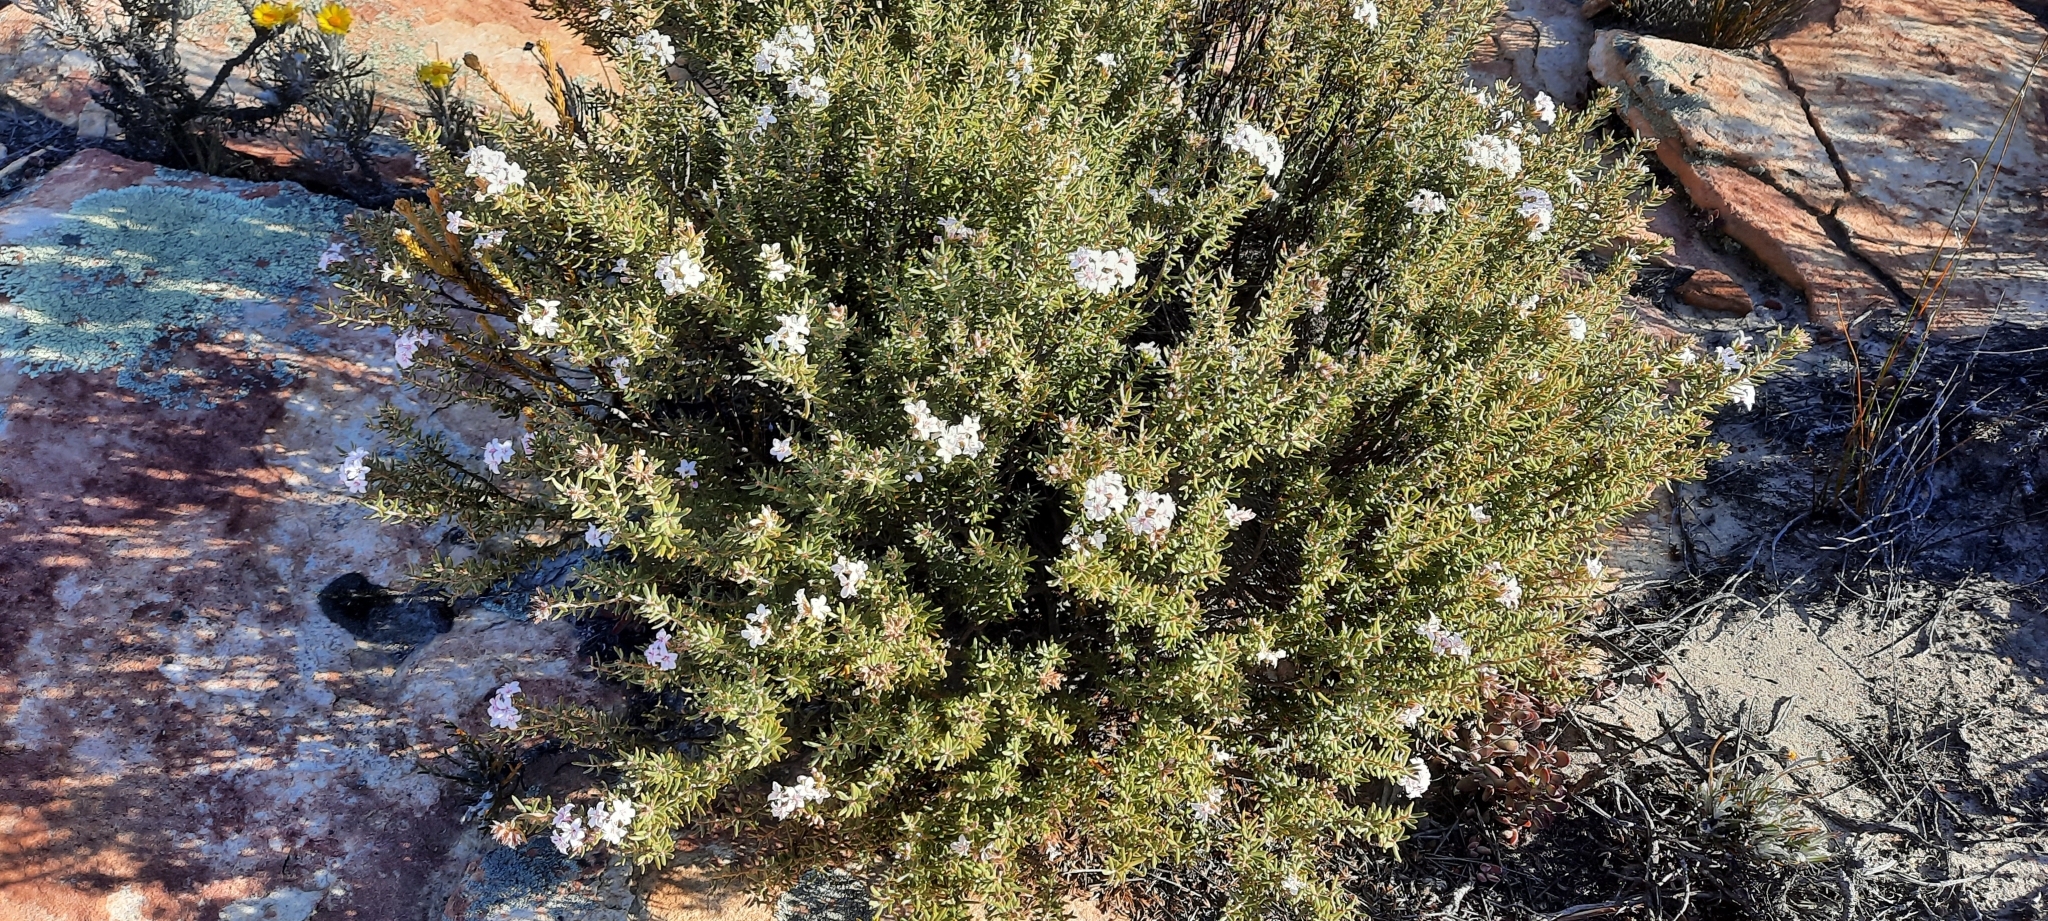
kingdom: Plantae
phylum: Tracheophyta
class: Magnoliopsida
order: Sapindales
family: Rutaceae
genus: Phyllosma
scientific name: Phyllosma capensis
